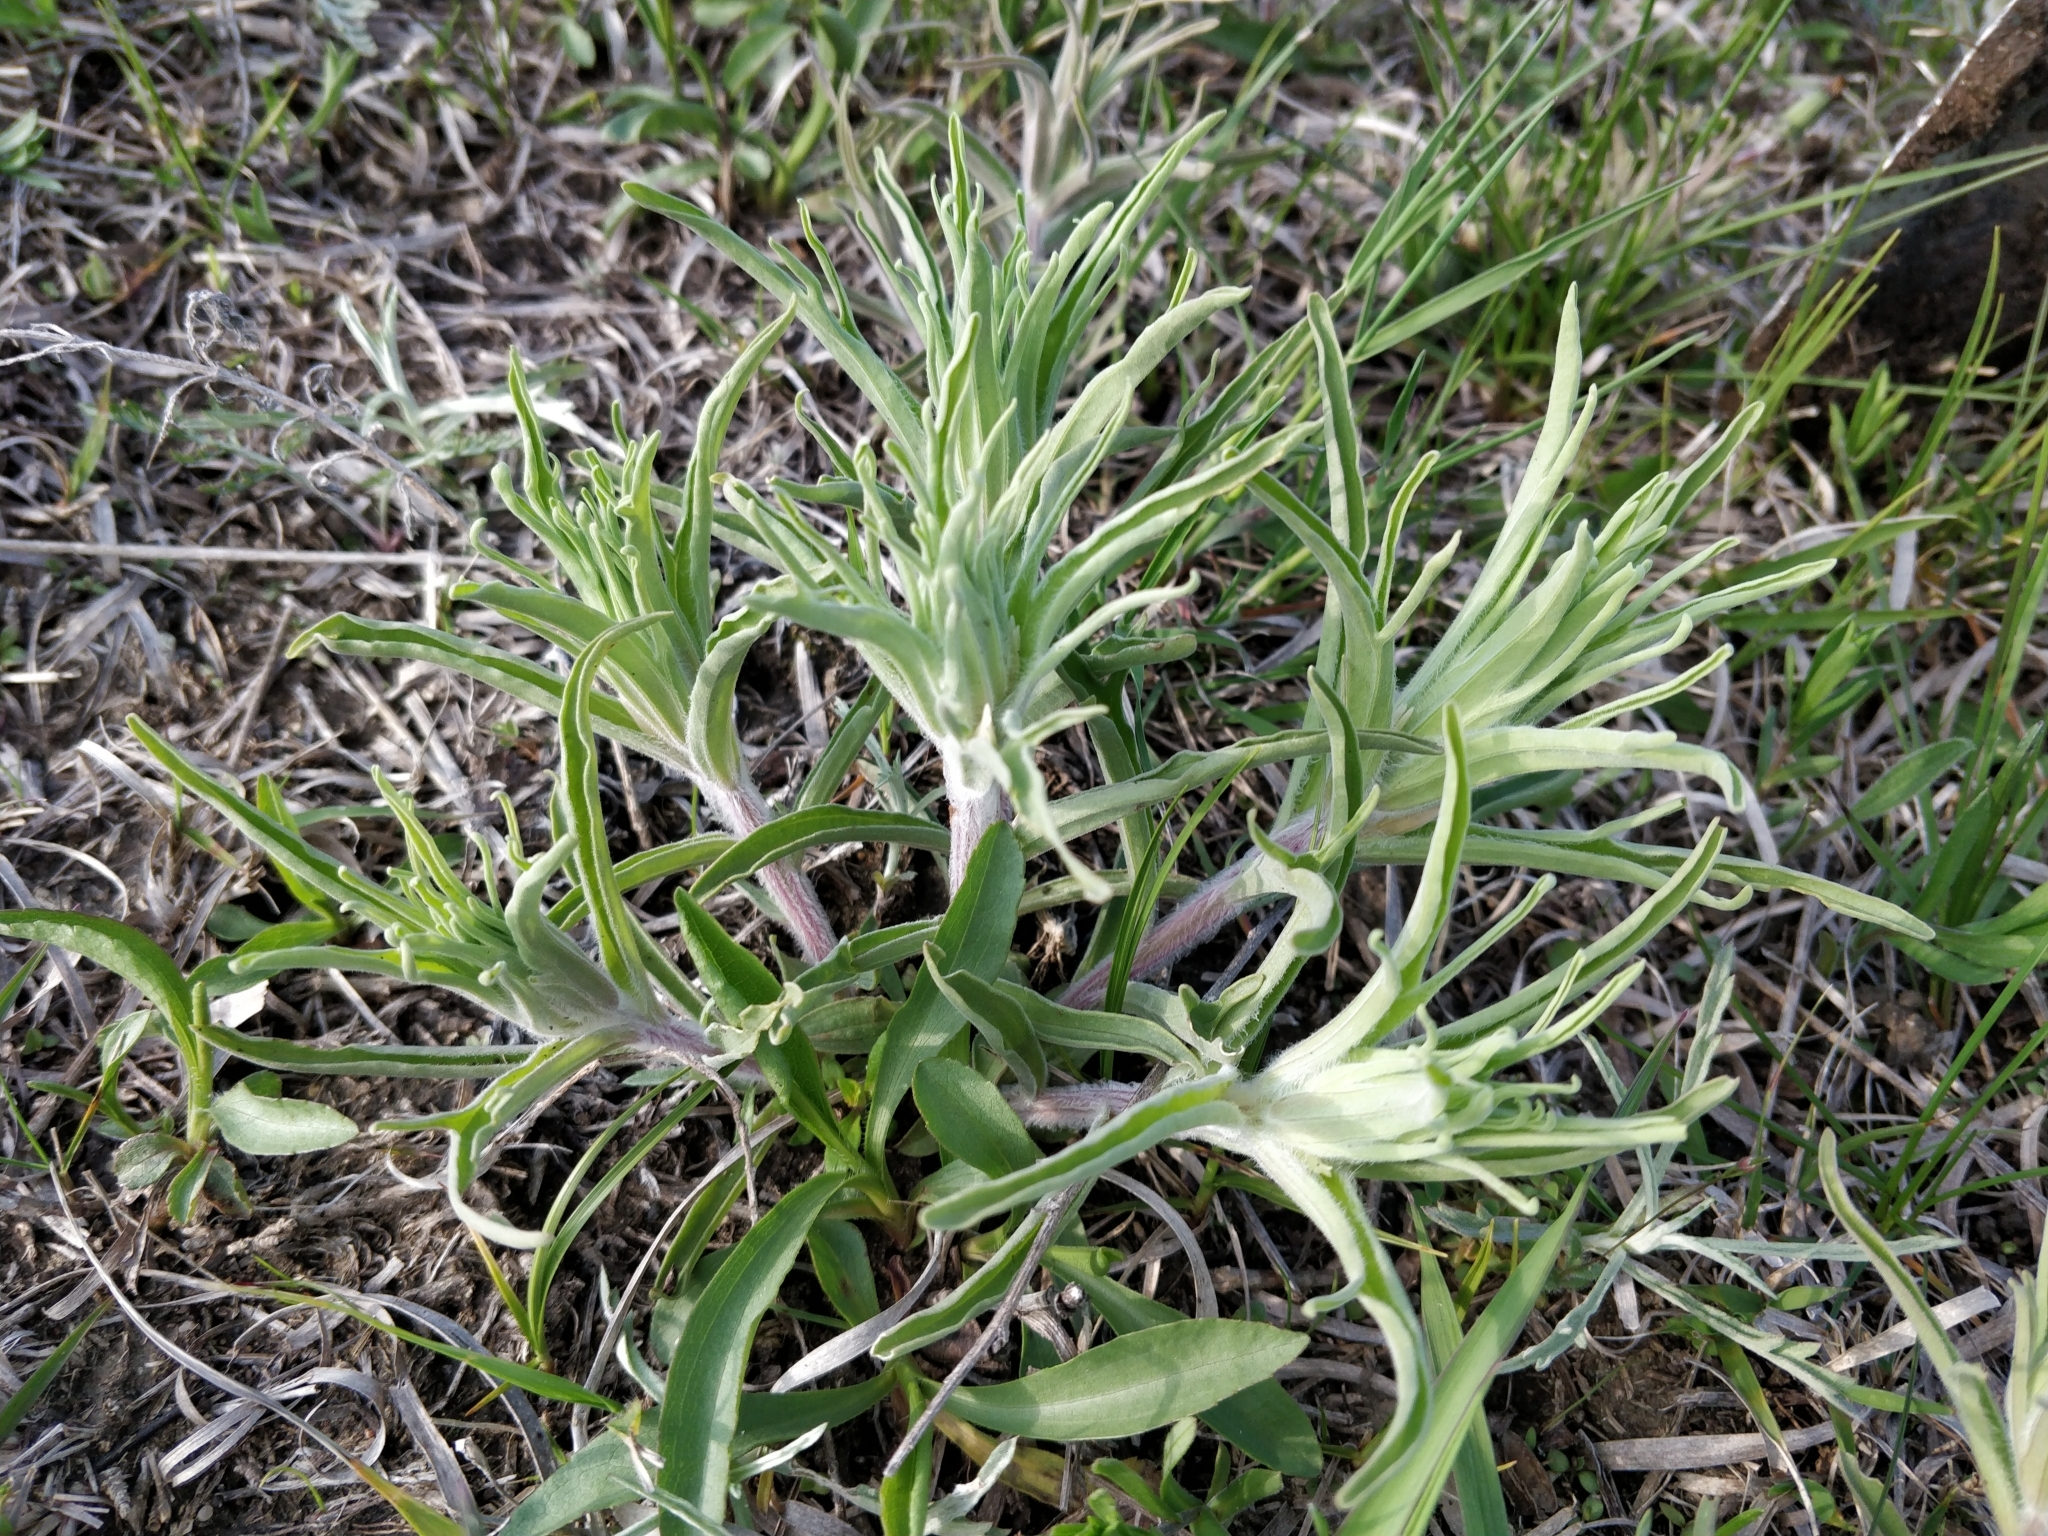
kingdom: Plantae
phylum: Tracheophyta
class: Magnoliopsida
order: Lamiales
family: Orobanchaceae
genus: Castilleja
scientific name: Castilleja sessiliflora
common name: Downy paintbrush
